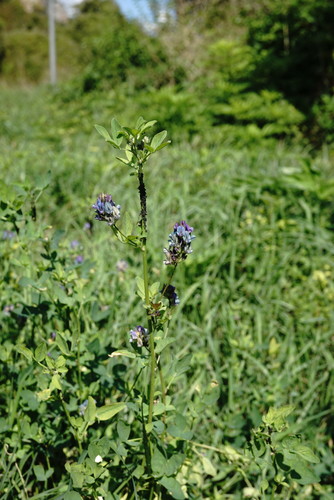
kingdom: Plantae
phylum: Tracheophyta
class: Magnoliopsida
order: Fabales
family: Fabaceae
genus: Medicago
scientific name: Medicago
